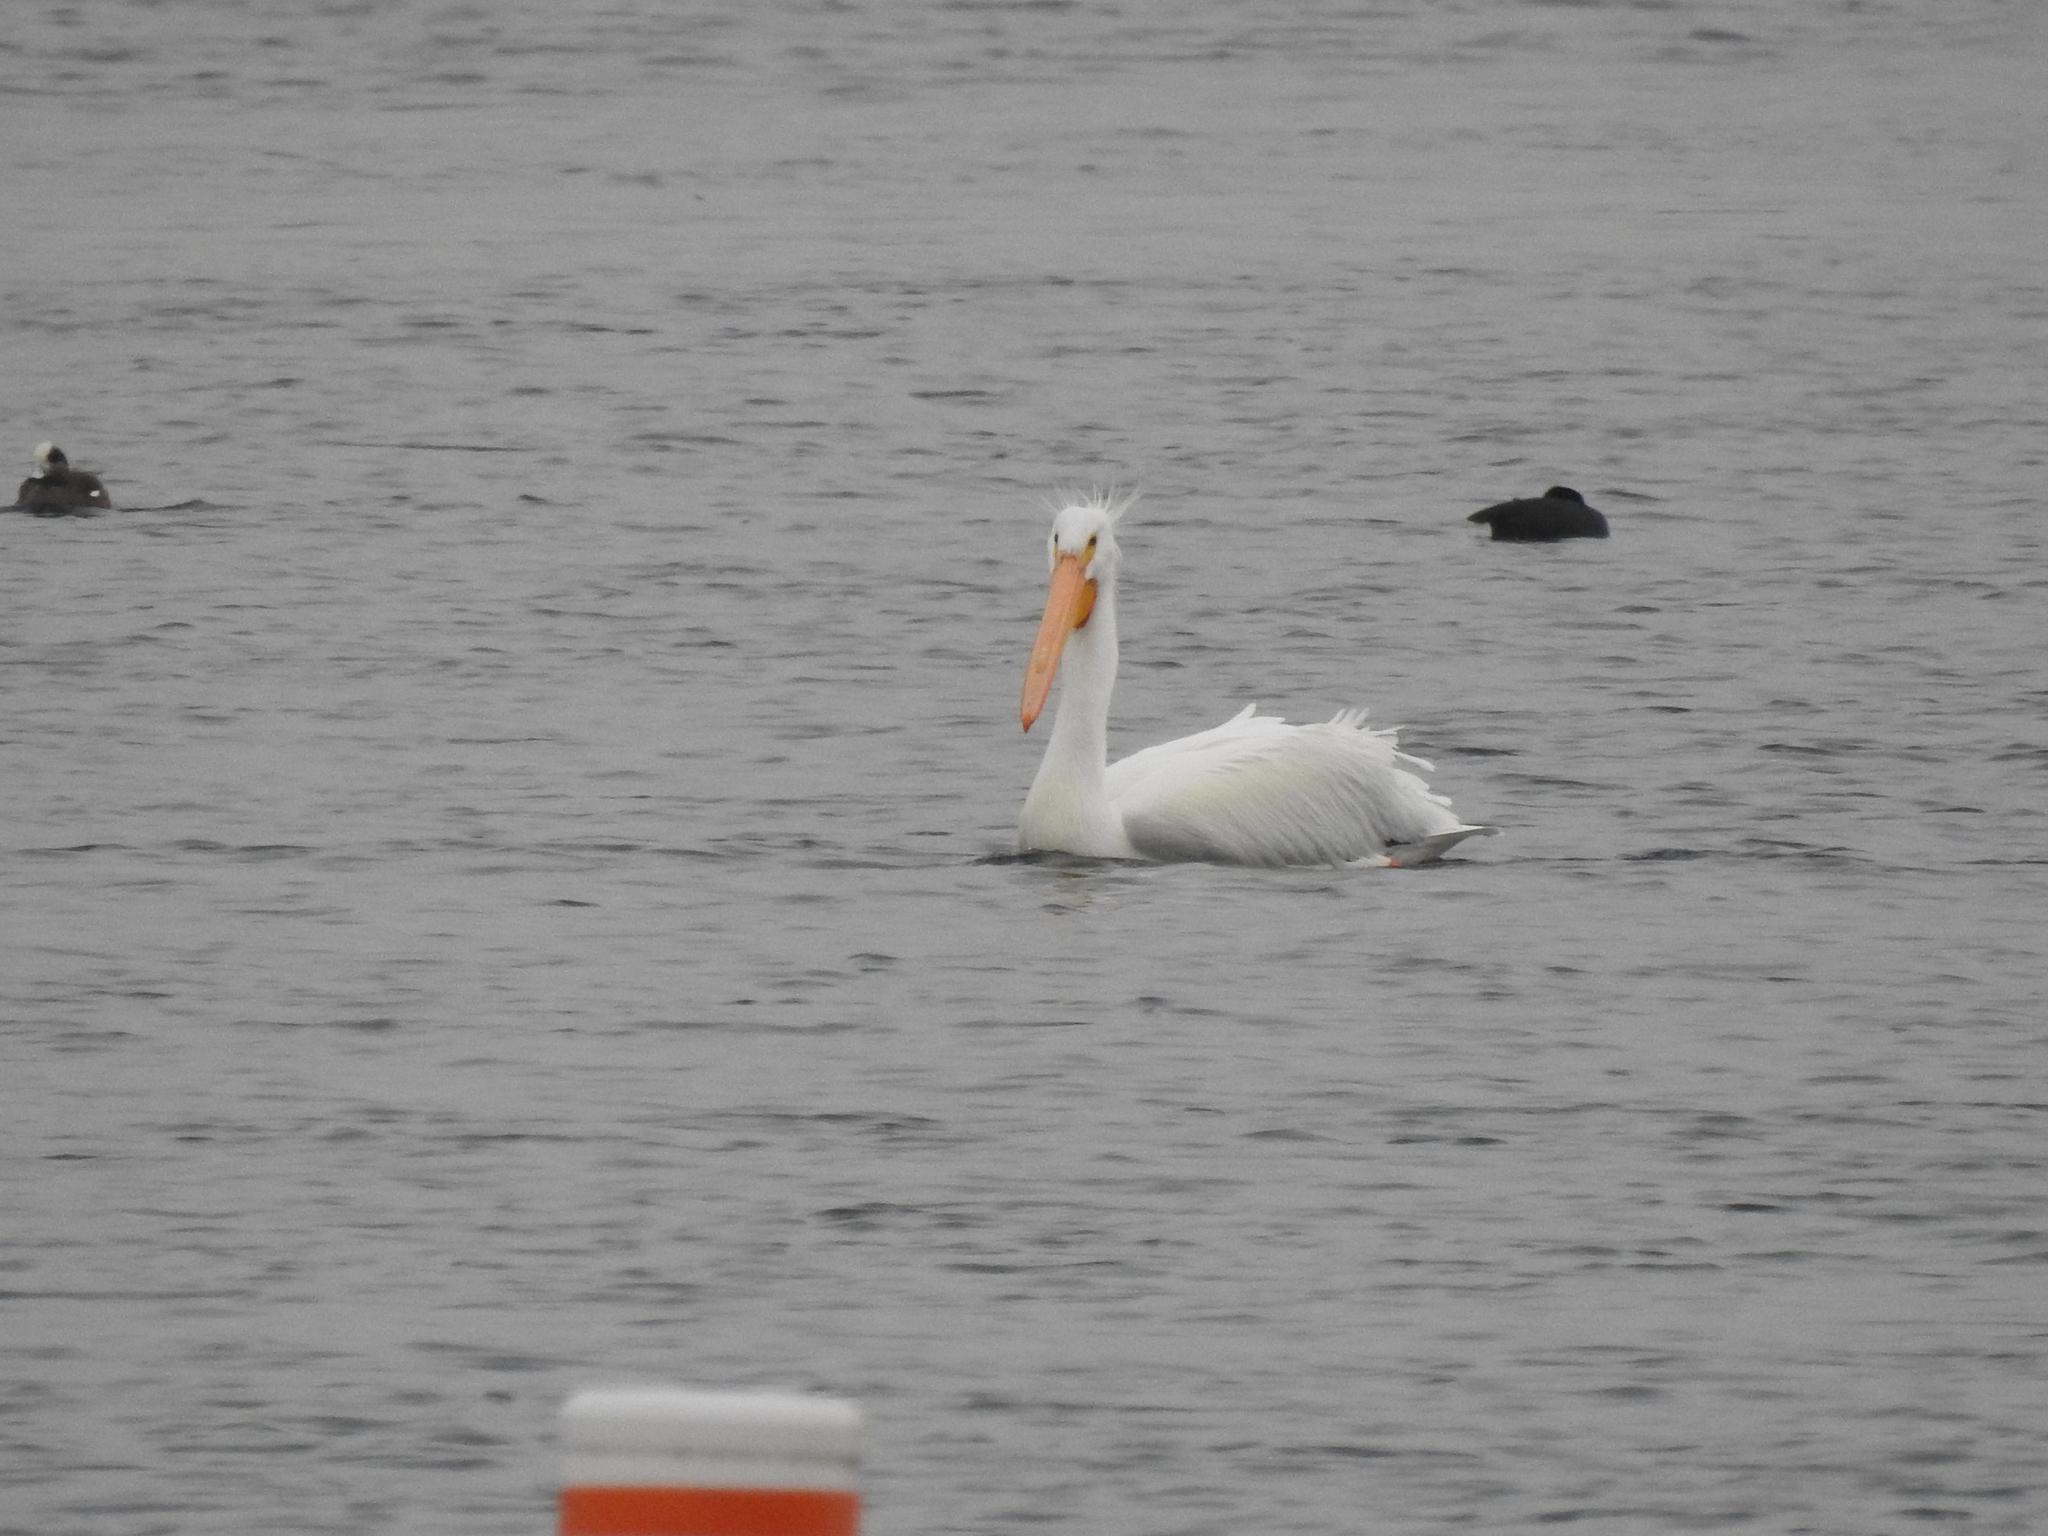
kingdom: Animalia
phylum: Chordata
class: Aves
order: Pelecaniformes
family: Pelecanidae
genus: Pelecanus
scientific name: Pelecanus erythrorhynchos
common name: American white pelican
